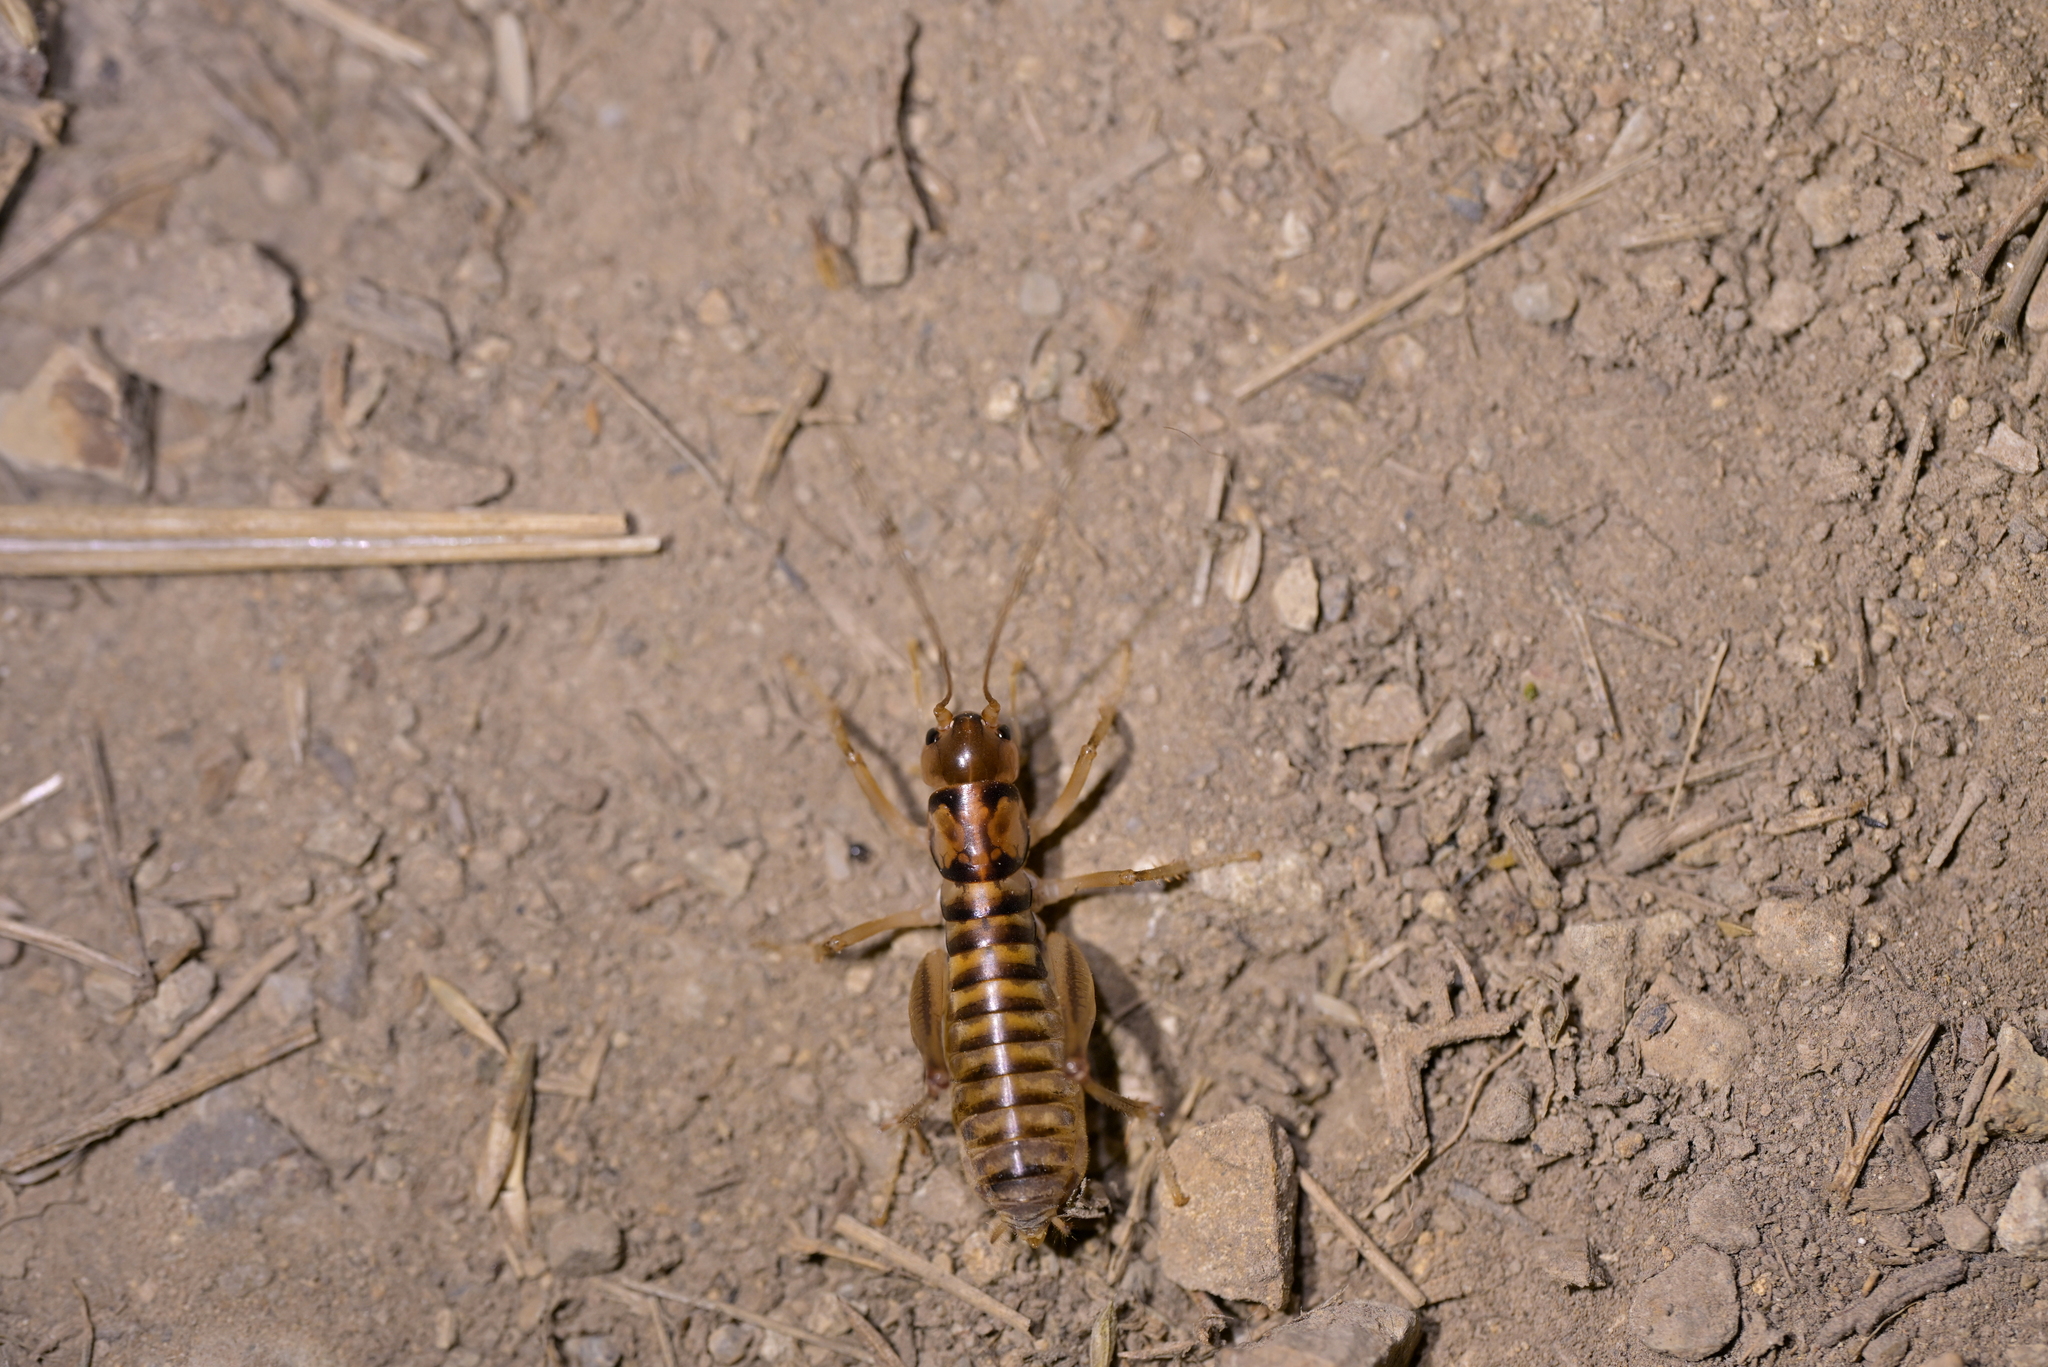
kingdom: Animalia
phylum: Arthropoda
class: Insecta
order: Orthoptera
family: Anostostomatidae
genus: Hemiandrus
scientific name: Hemiandrus pallitarsis
